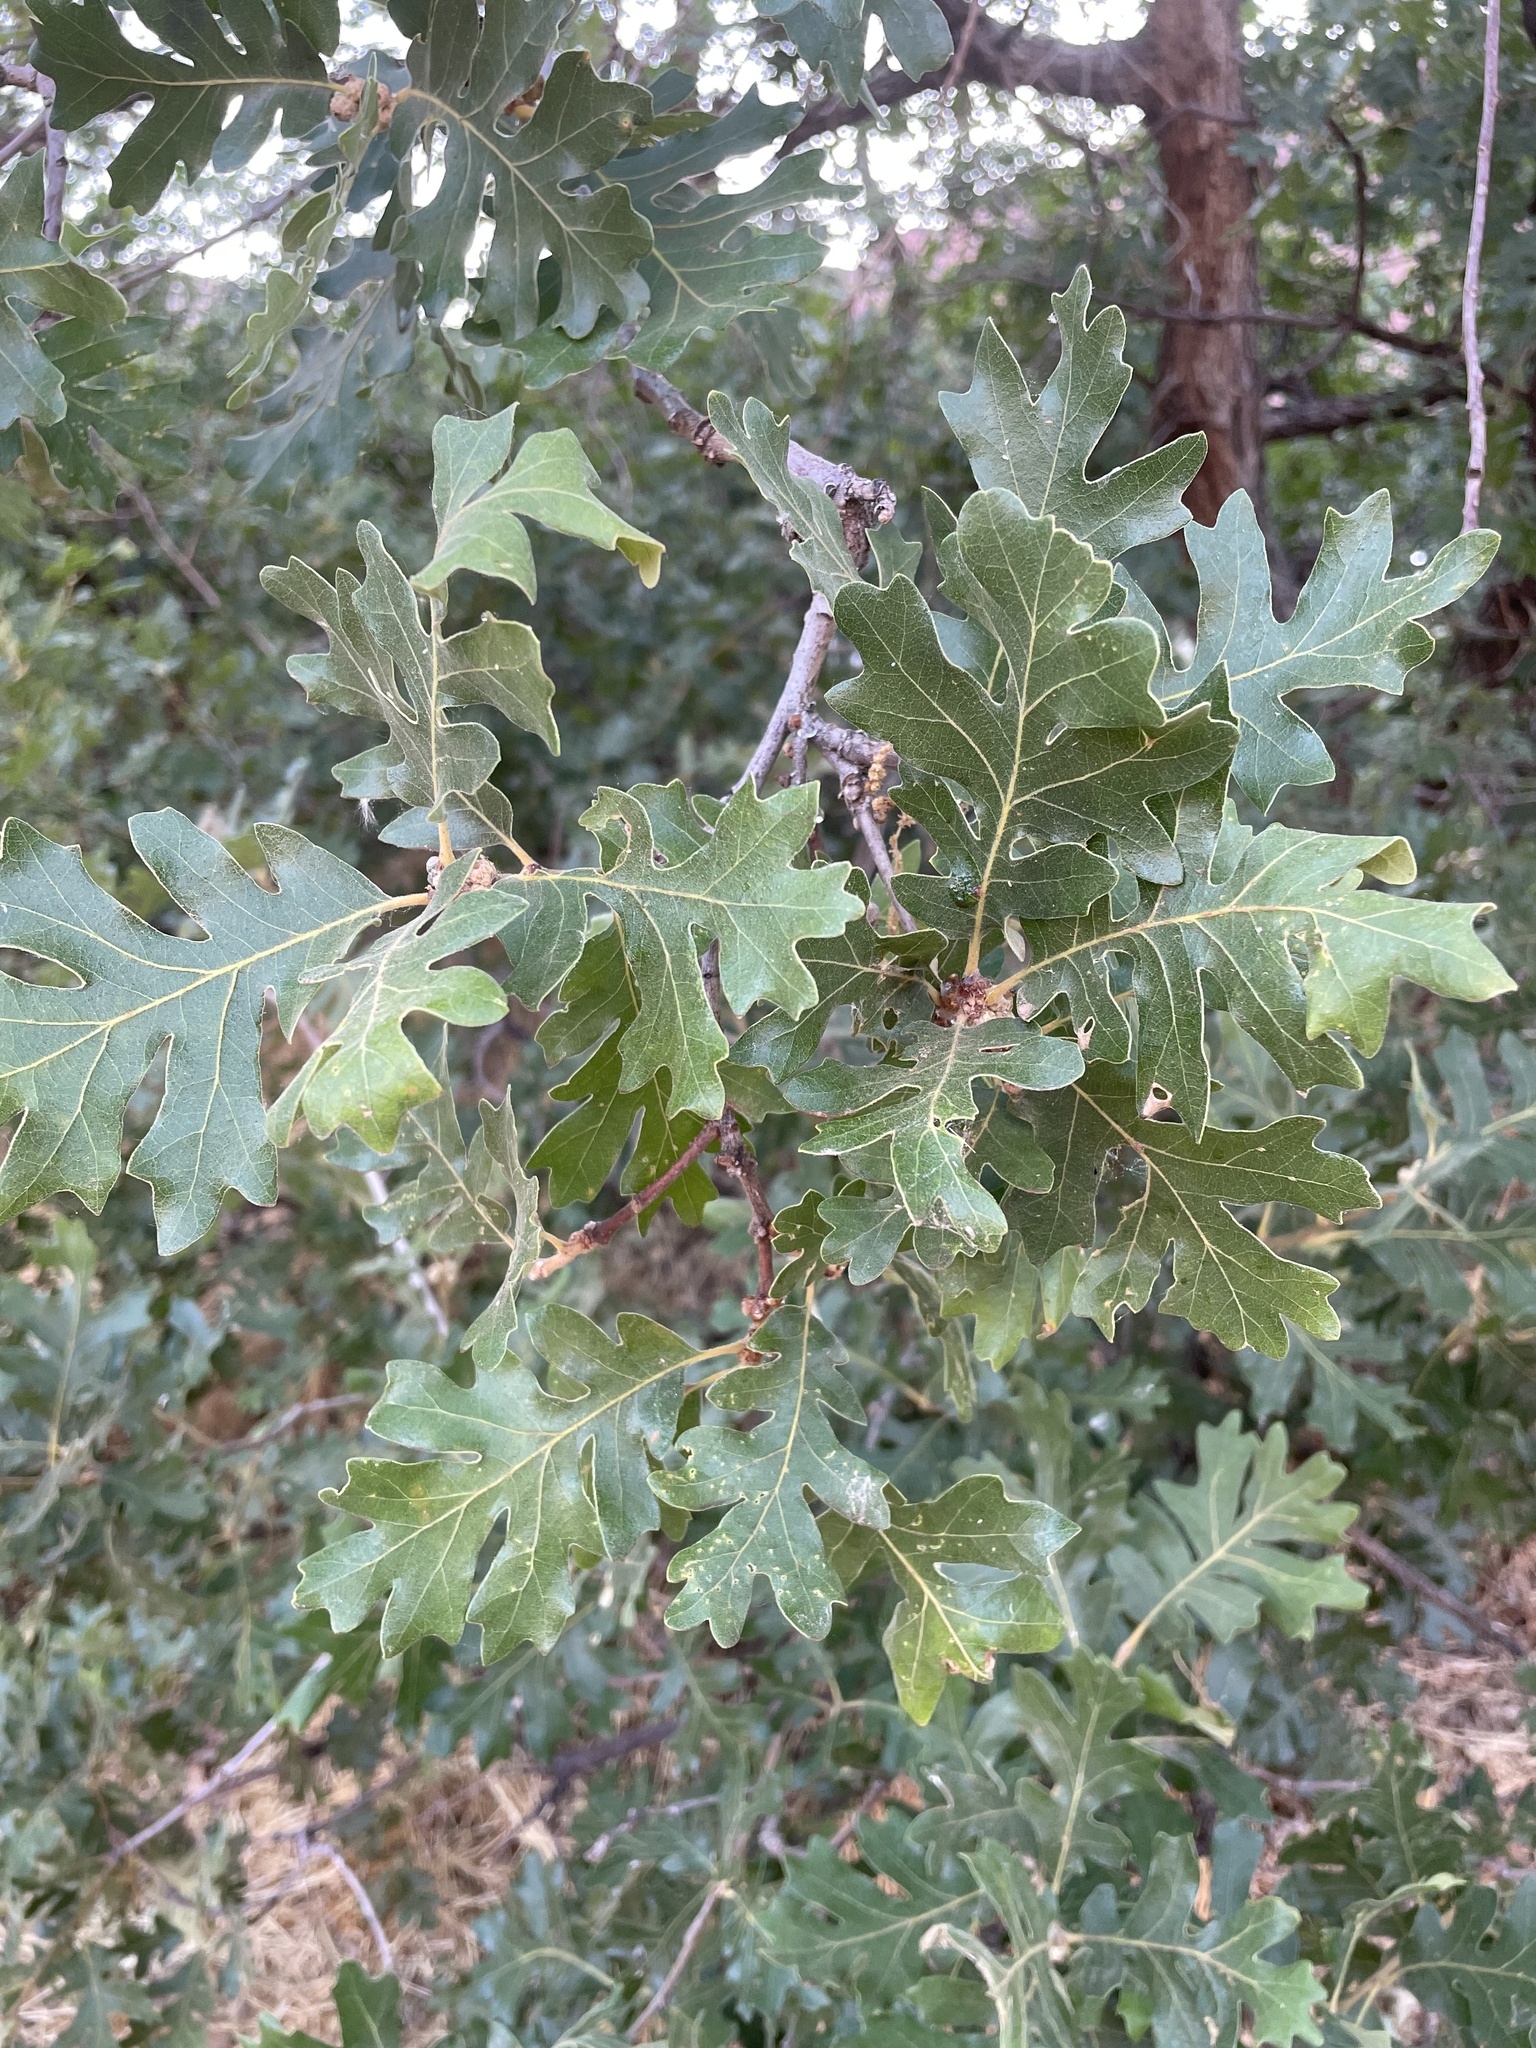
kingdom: Plantae
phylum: Tracheophyta
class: Magnoliopsida
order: Fagales
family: Fagaceae
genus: Quercus
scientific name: Quercus gambelii
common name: Gambel oak
